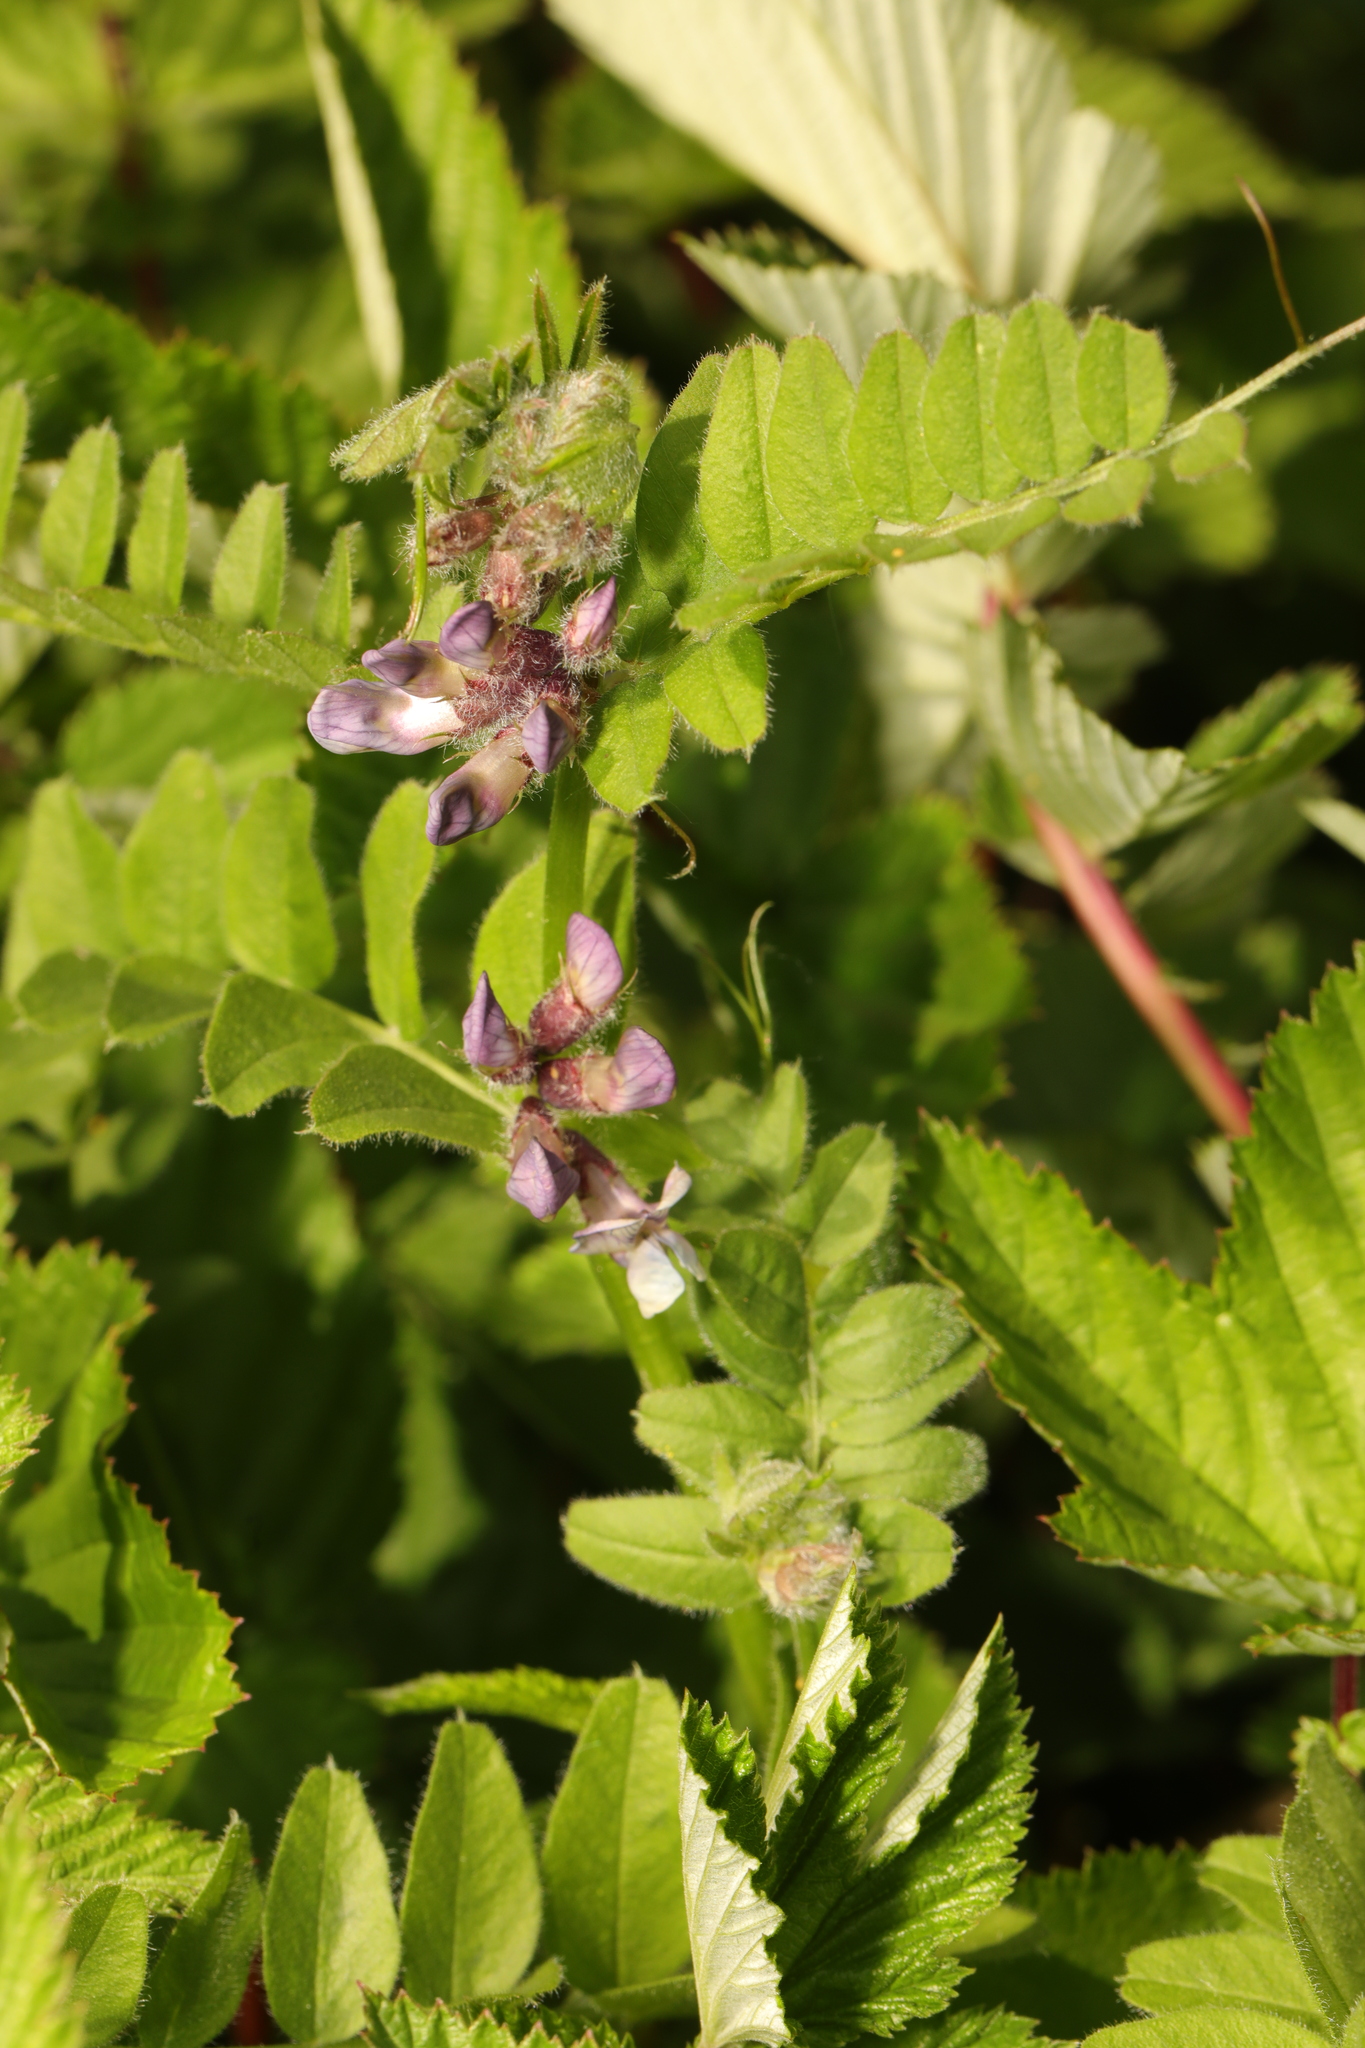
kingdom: Plantae
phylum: Tracheophyta
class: Magnoliopsida
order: Fabales
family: Fabaceae
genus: Vicia
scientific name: Vicia sepium
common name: Bush vetch
